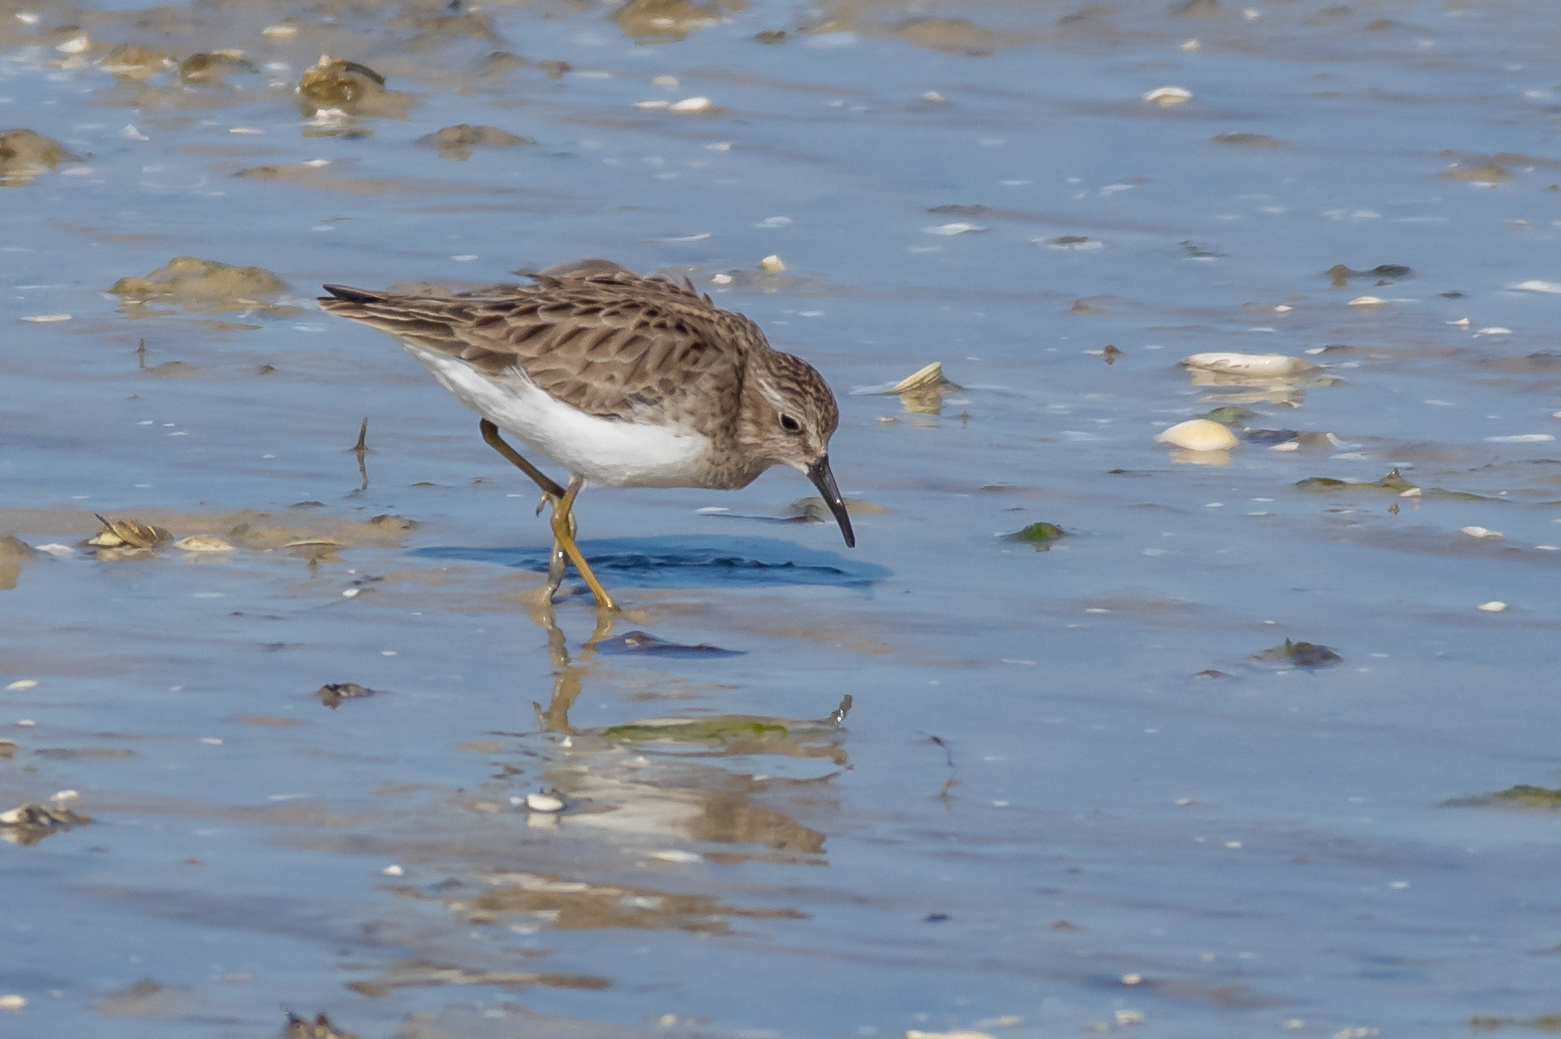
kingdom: Animalia
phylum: Chordata
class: Aves
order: Charadriiformes
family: Scolopacidae
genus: Calidris
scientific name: Calidris minutilla
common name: Least sandpiper
